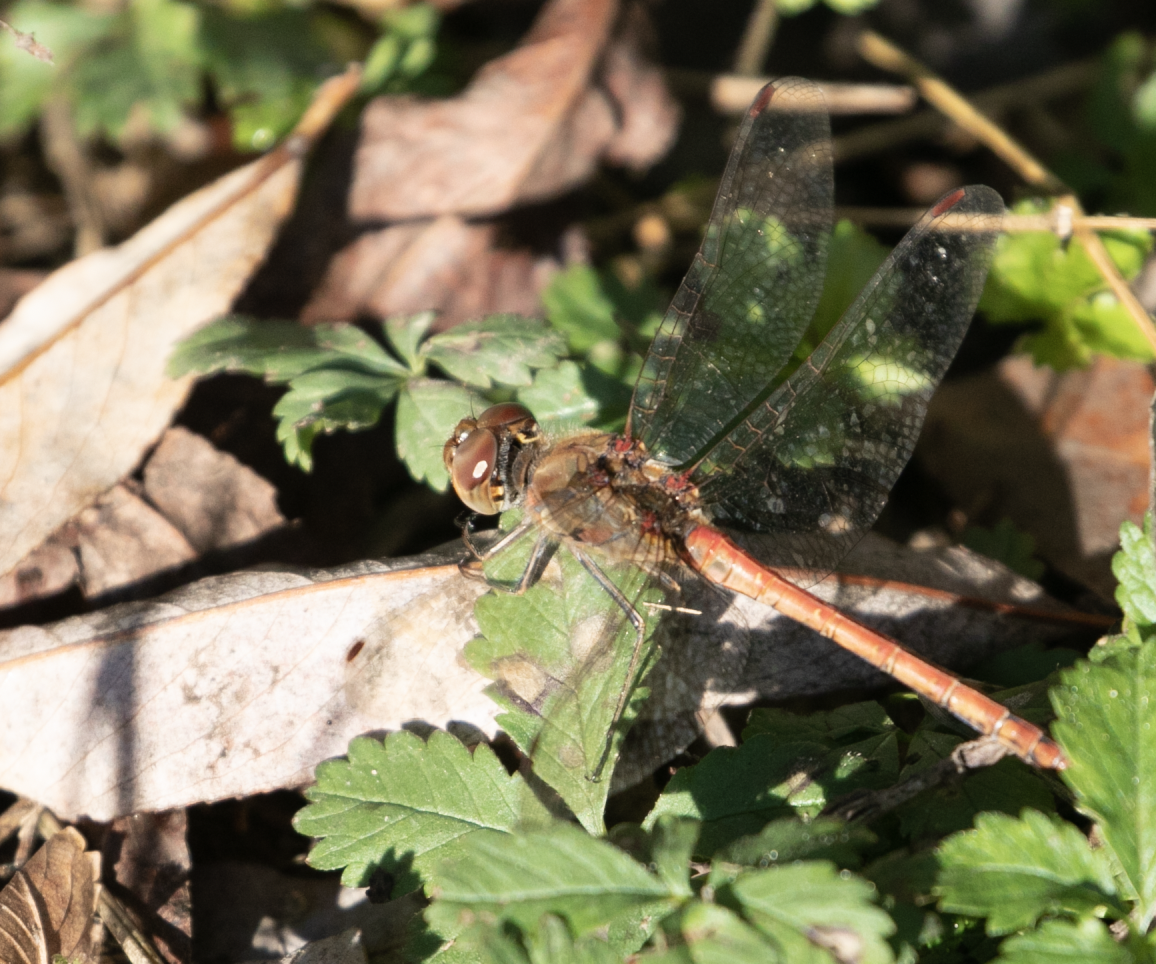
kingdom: Animalia
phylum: Arthropoda
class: Insecta
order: Odonata
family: Libellulidae
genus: Sympetrum
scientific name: Sympetrum striolatum
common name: Common darter
